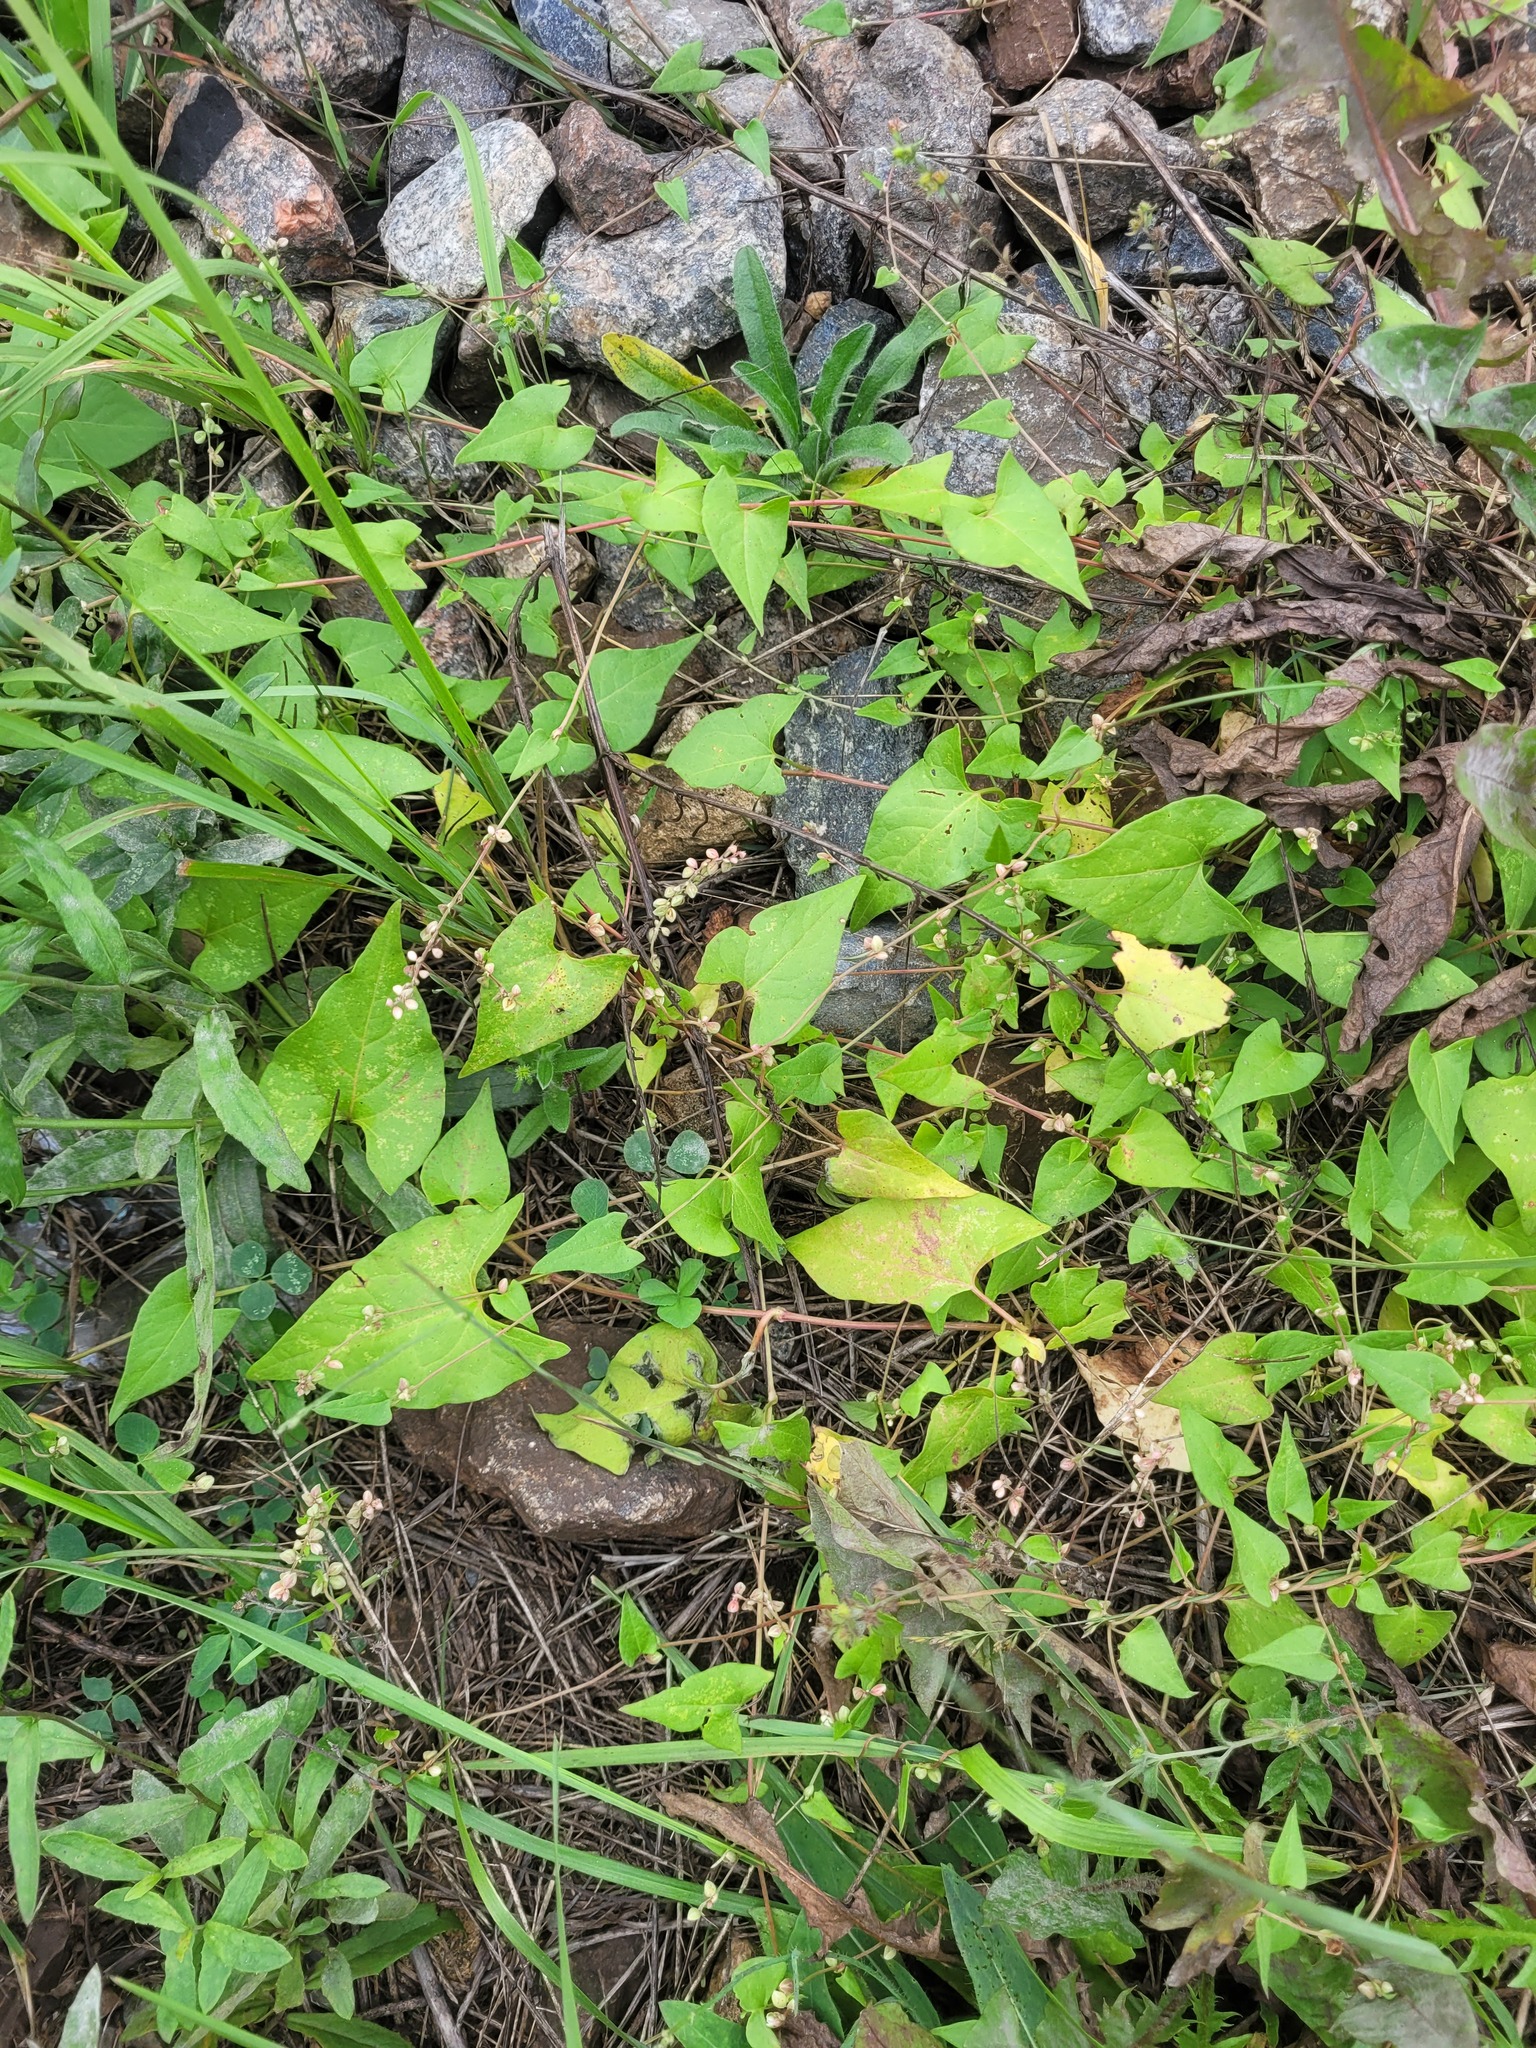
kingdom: Plantae
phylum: Tracheophyta
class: Magnoliopsida
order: Caryophyllales
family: Polygonaceae
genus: Fallopia
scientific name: Fallopia convolvulus
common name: Black bindweed
